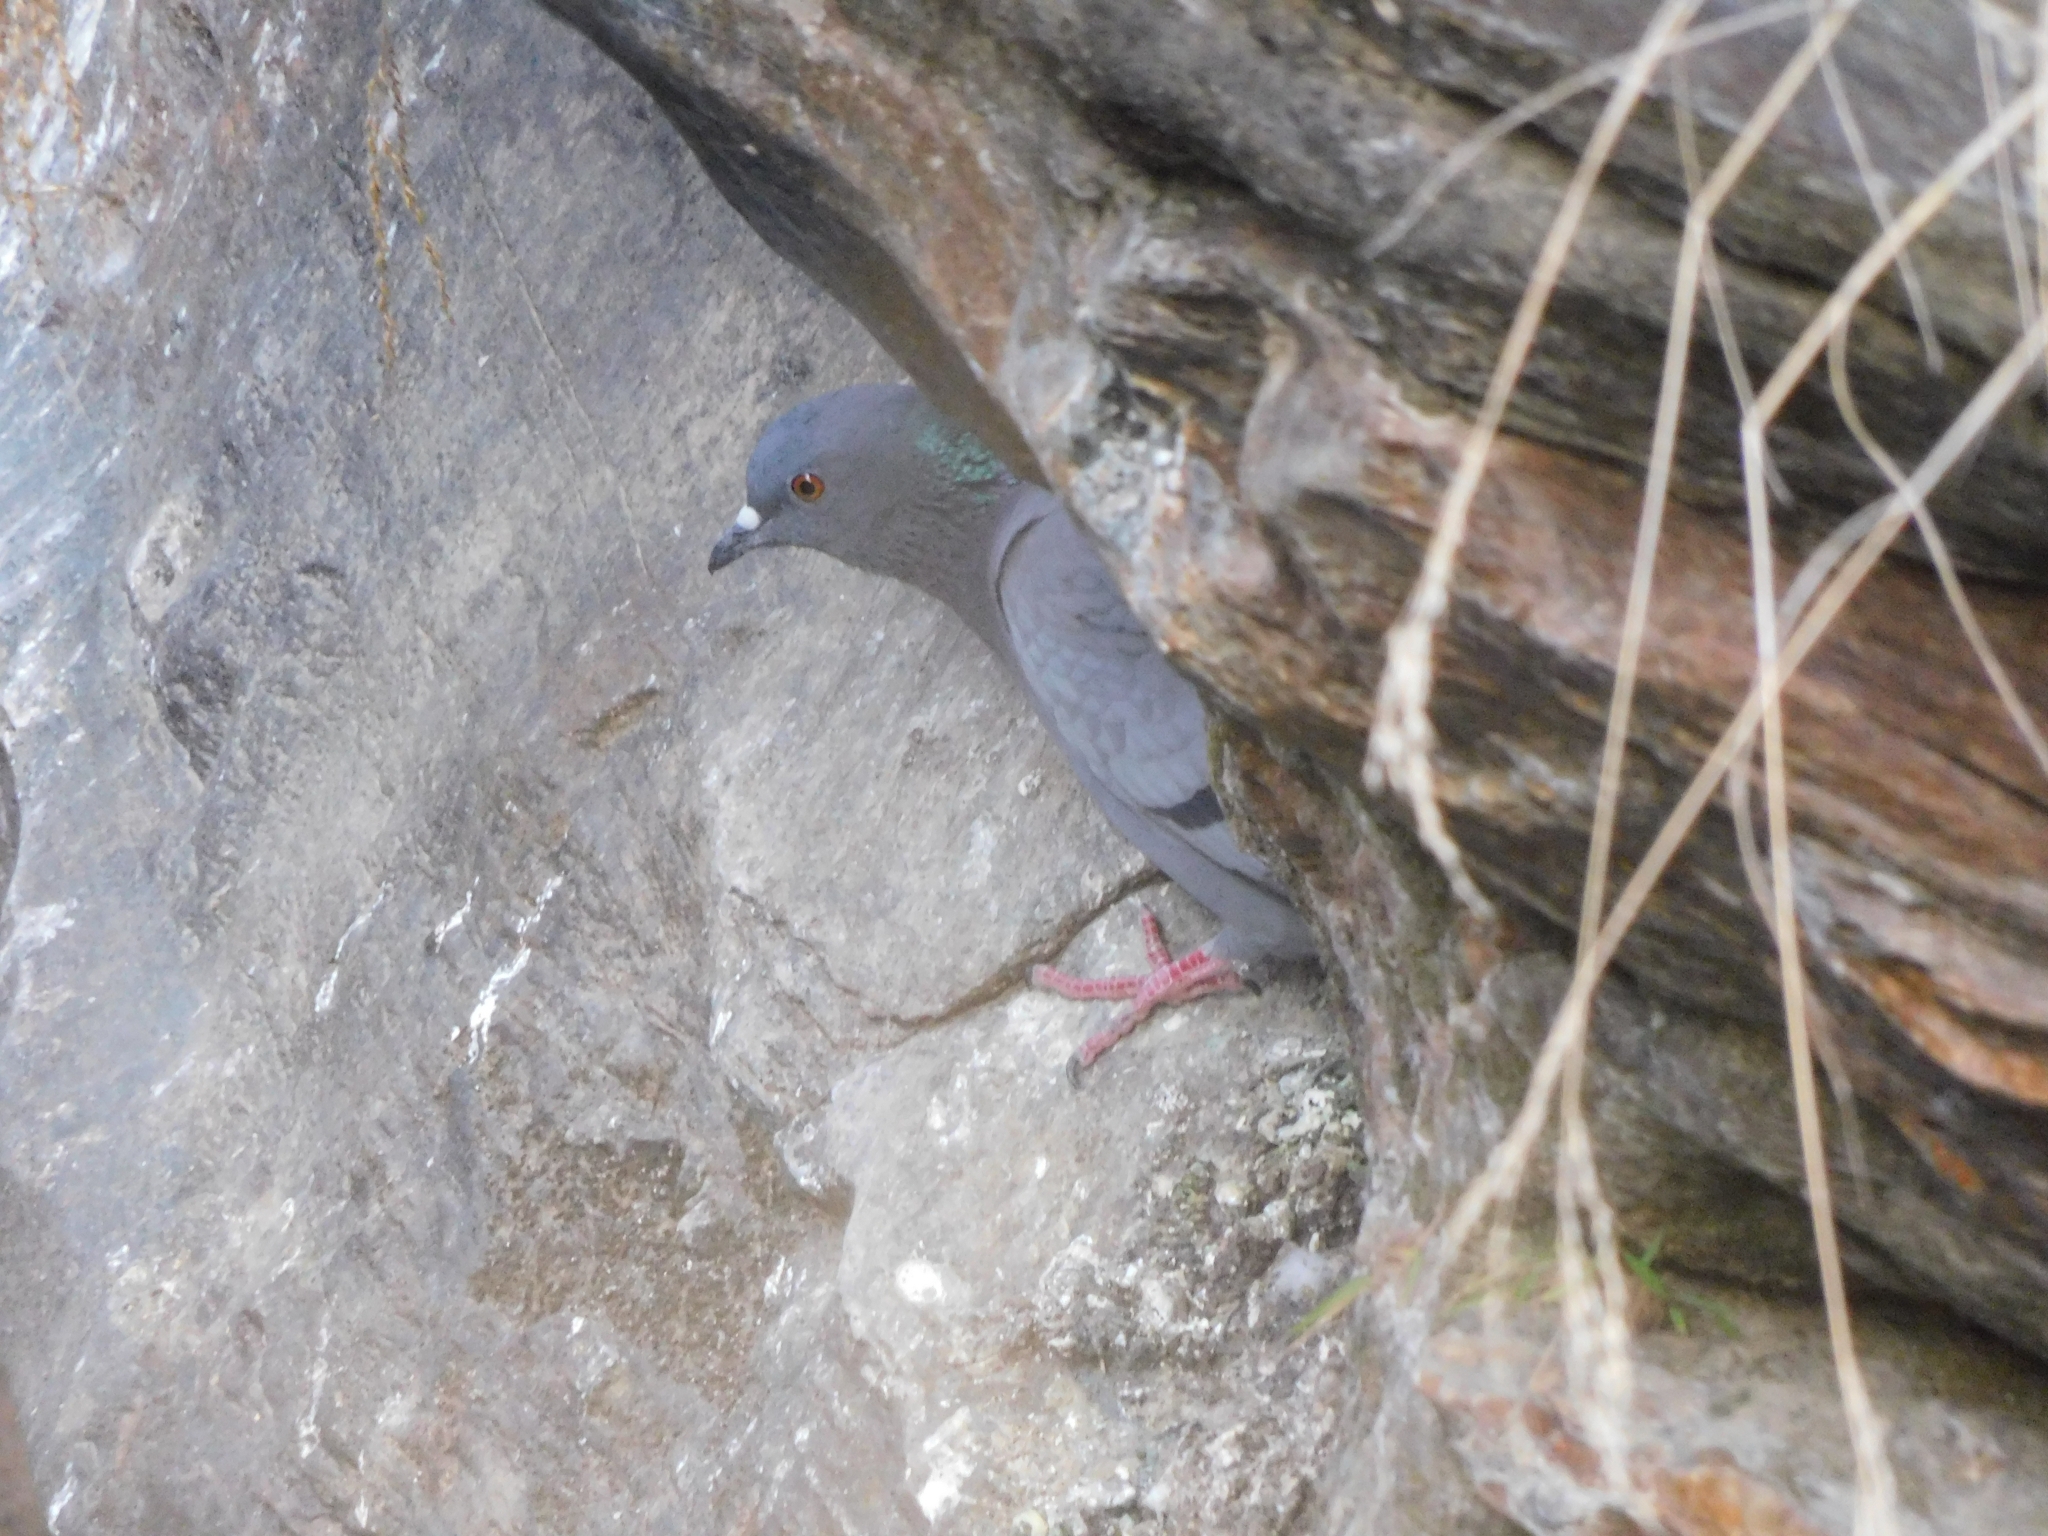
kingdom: Animalia
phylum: Chordata
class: Aves
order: Columbiformes
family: Columbidae
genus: Columba
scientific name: Columba livia
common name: Rock pigeon
